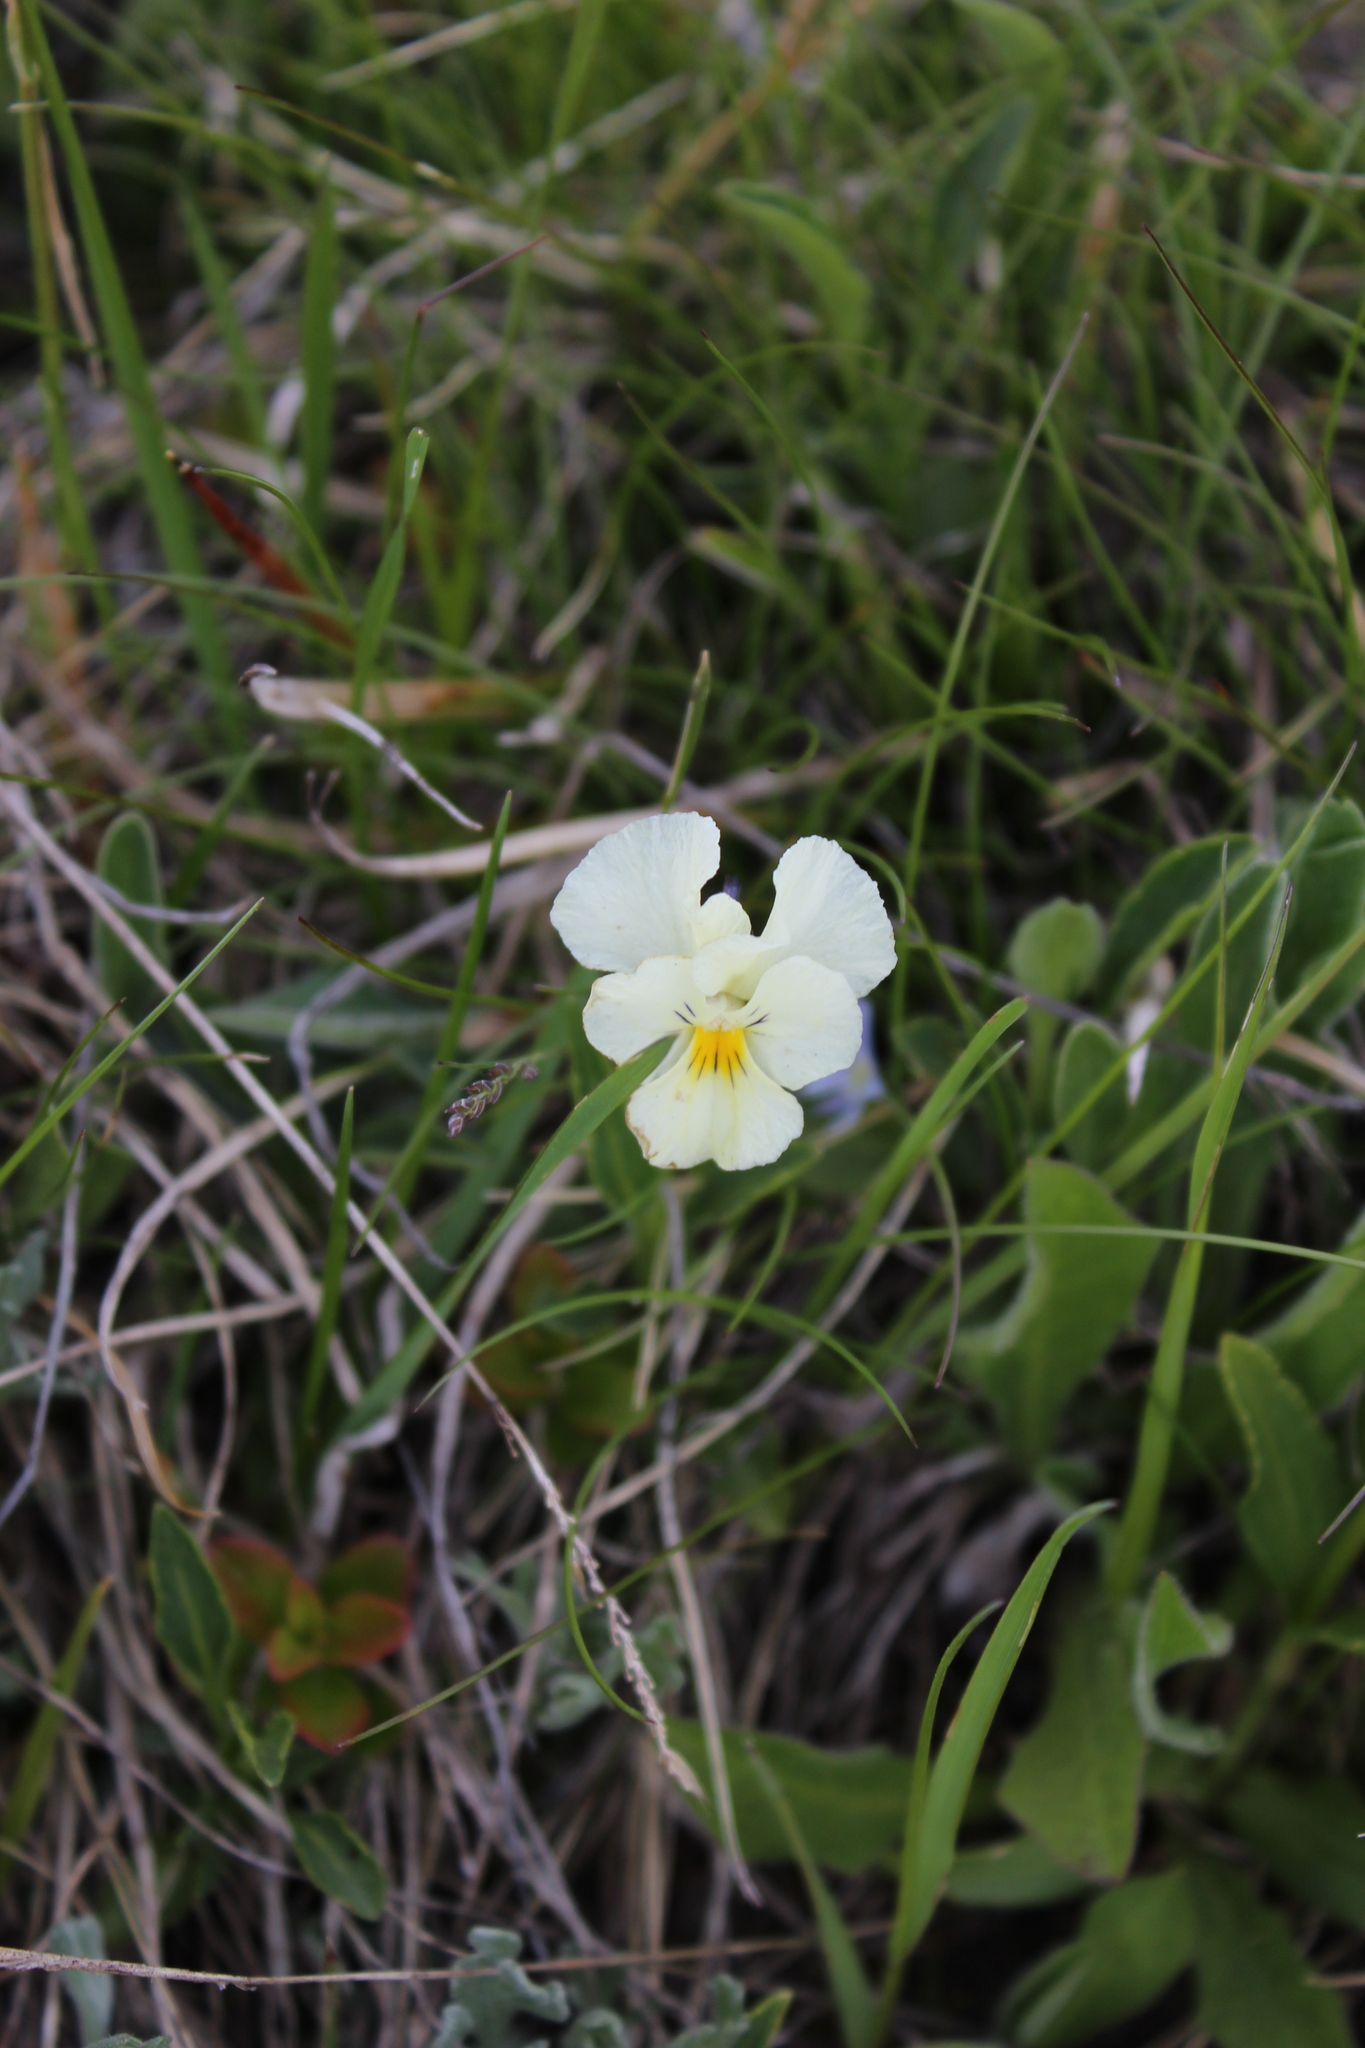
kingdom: Plantae
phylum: Tracheophyta
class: Magnoliopsida
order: Malpighiales
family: Violaceae
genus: Viola
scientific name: Viola oreades
